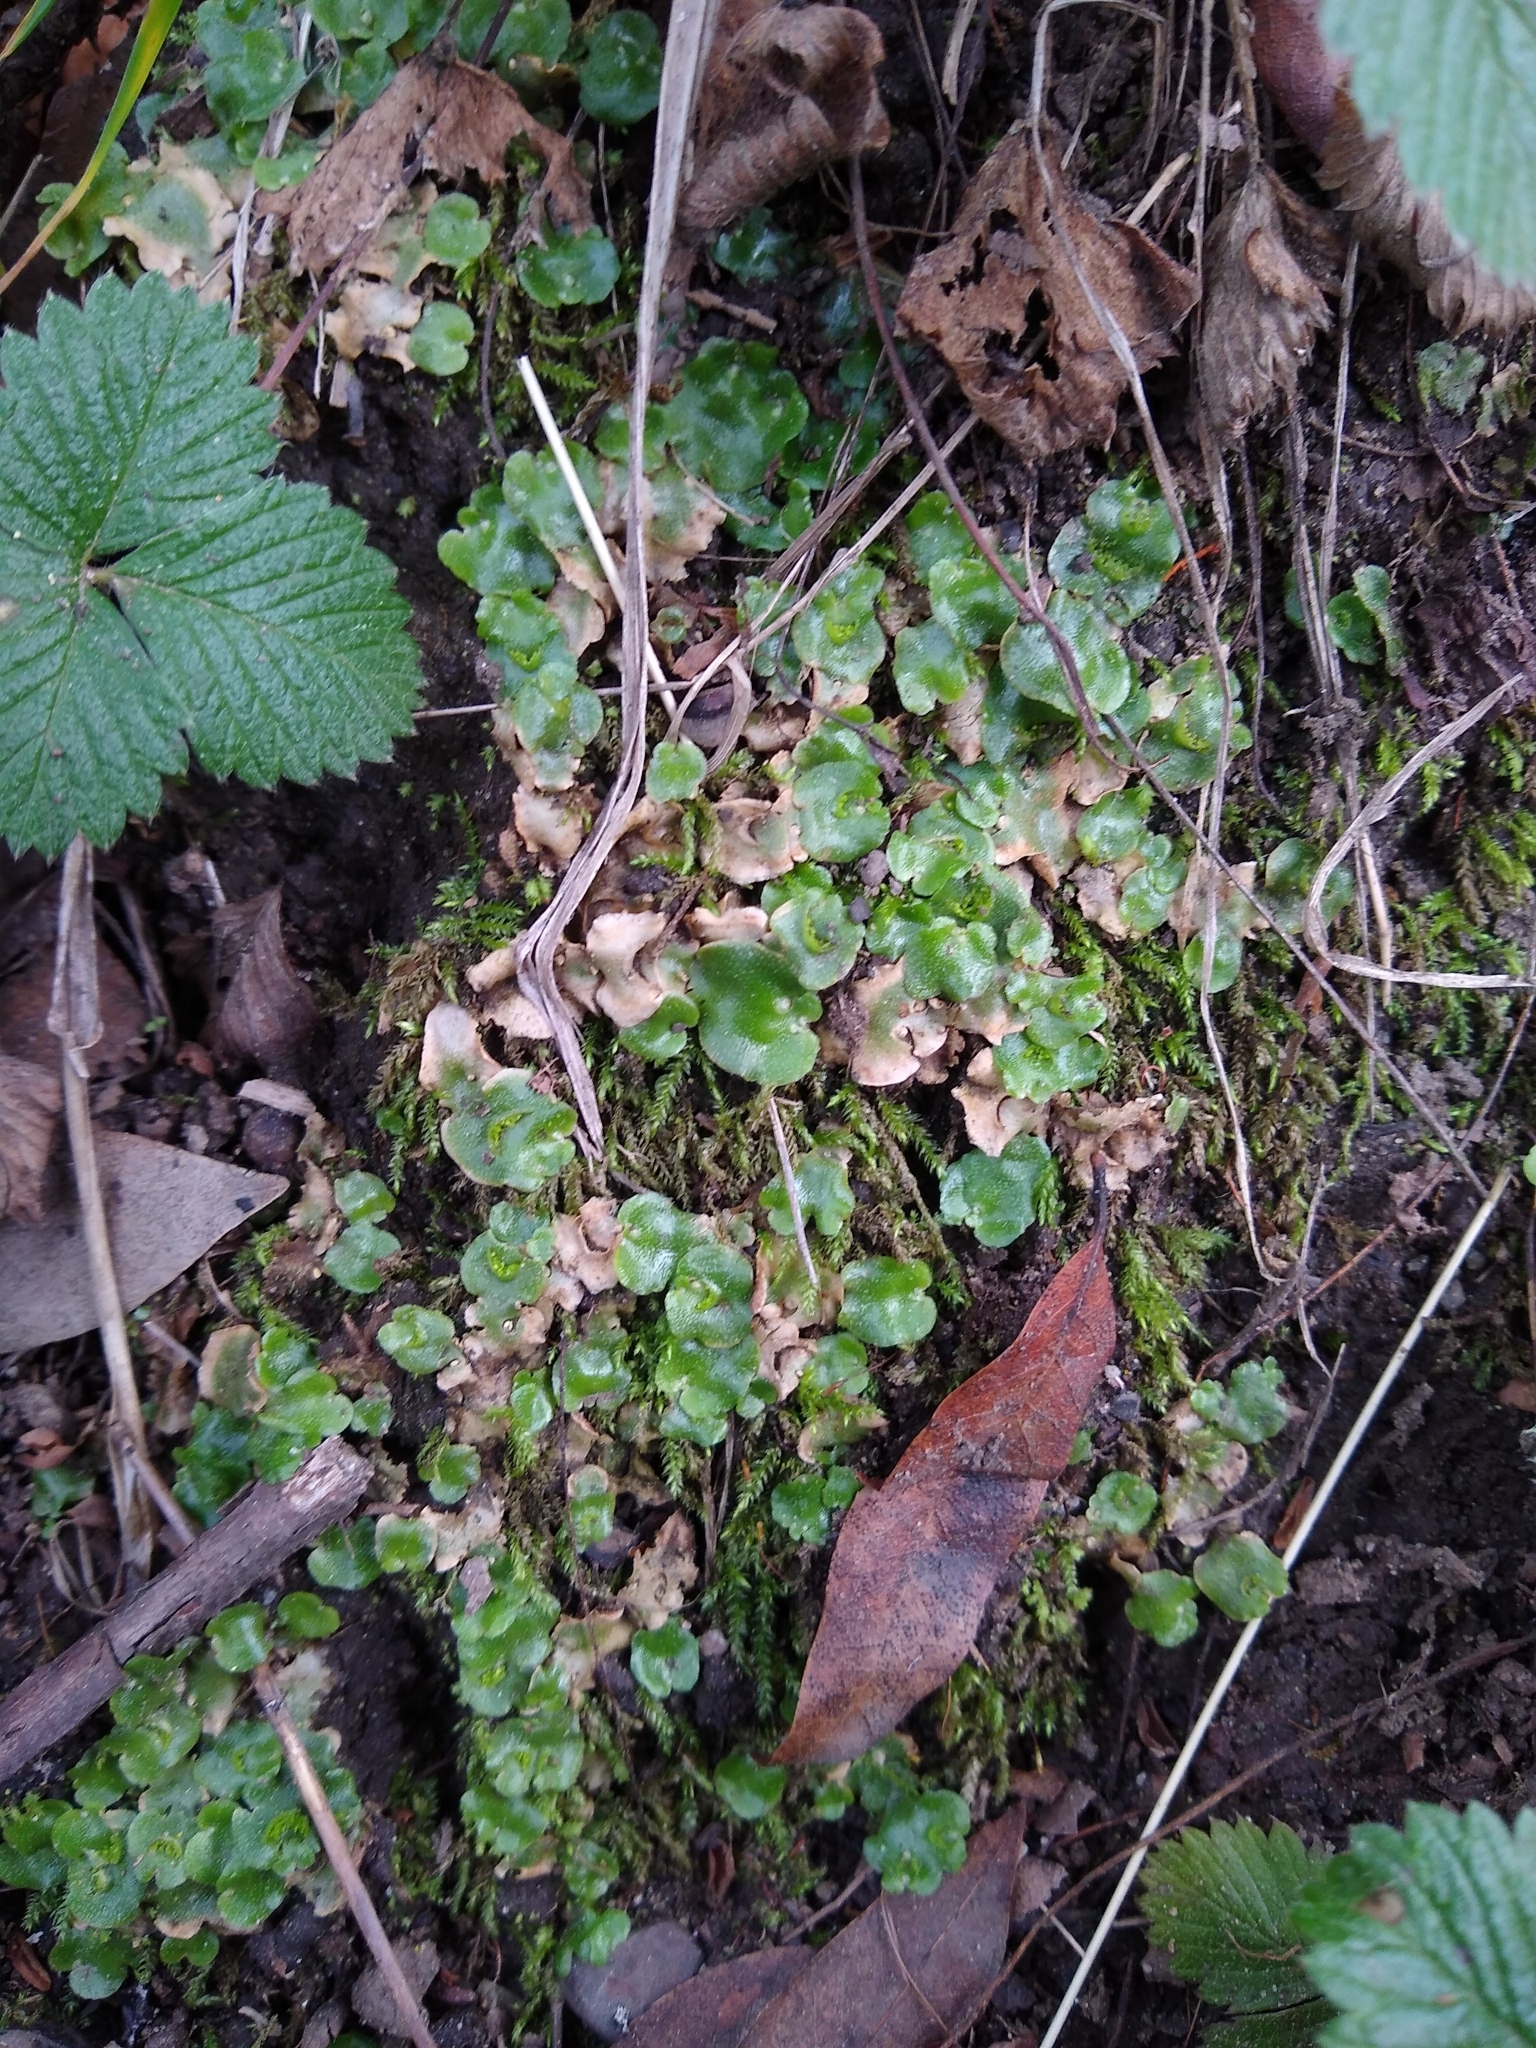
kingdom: Plantae
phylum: Marchantiophyta
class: Marchantiopsida
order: Lunulariales
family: Lunulariaceae
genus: Lunularia
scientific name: Lunularia cruciata
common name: Crescent-cup liverwort
